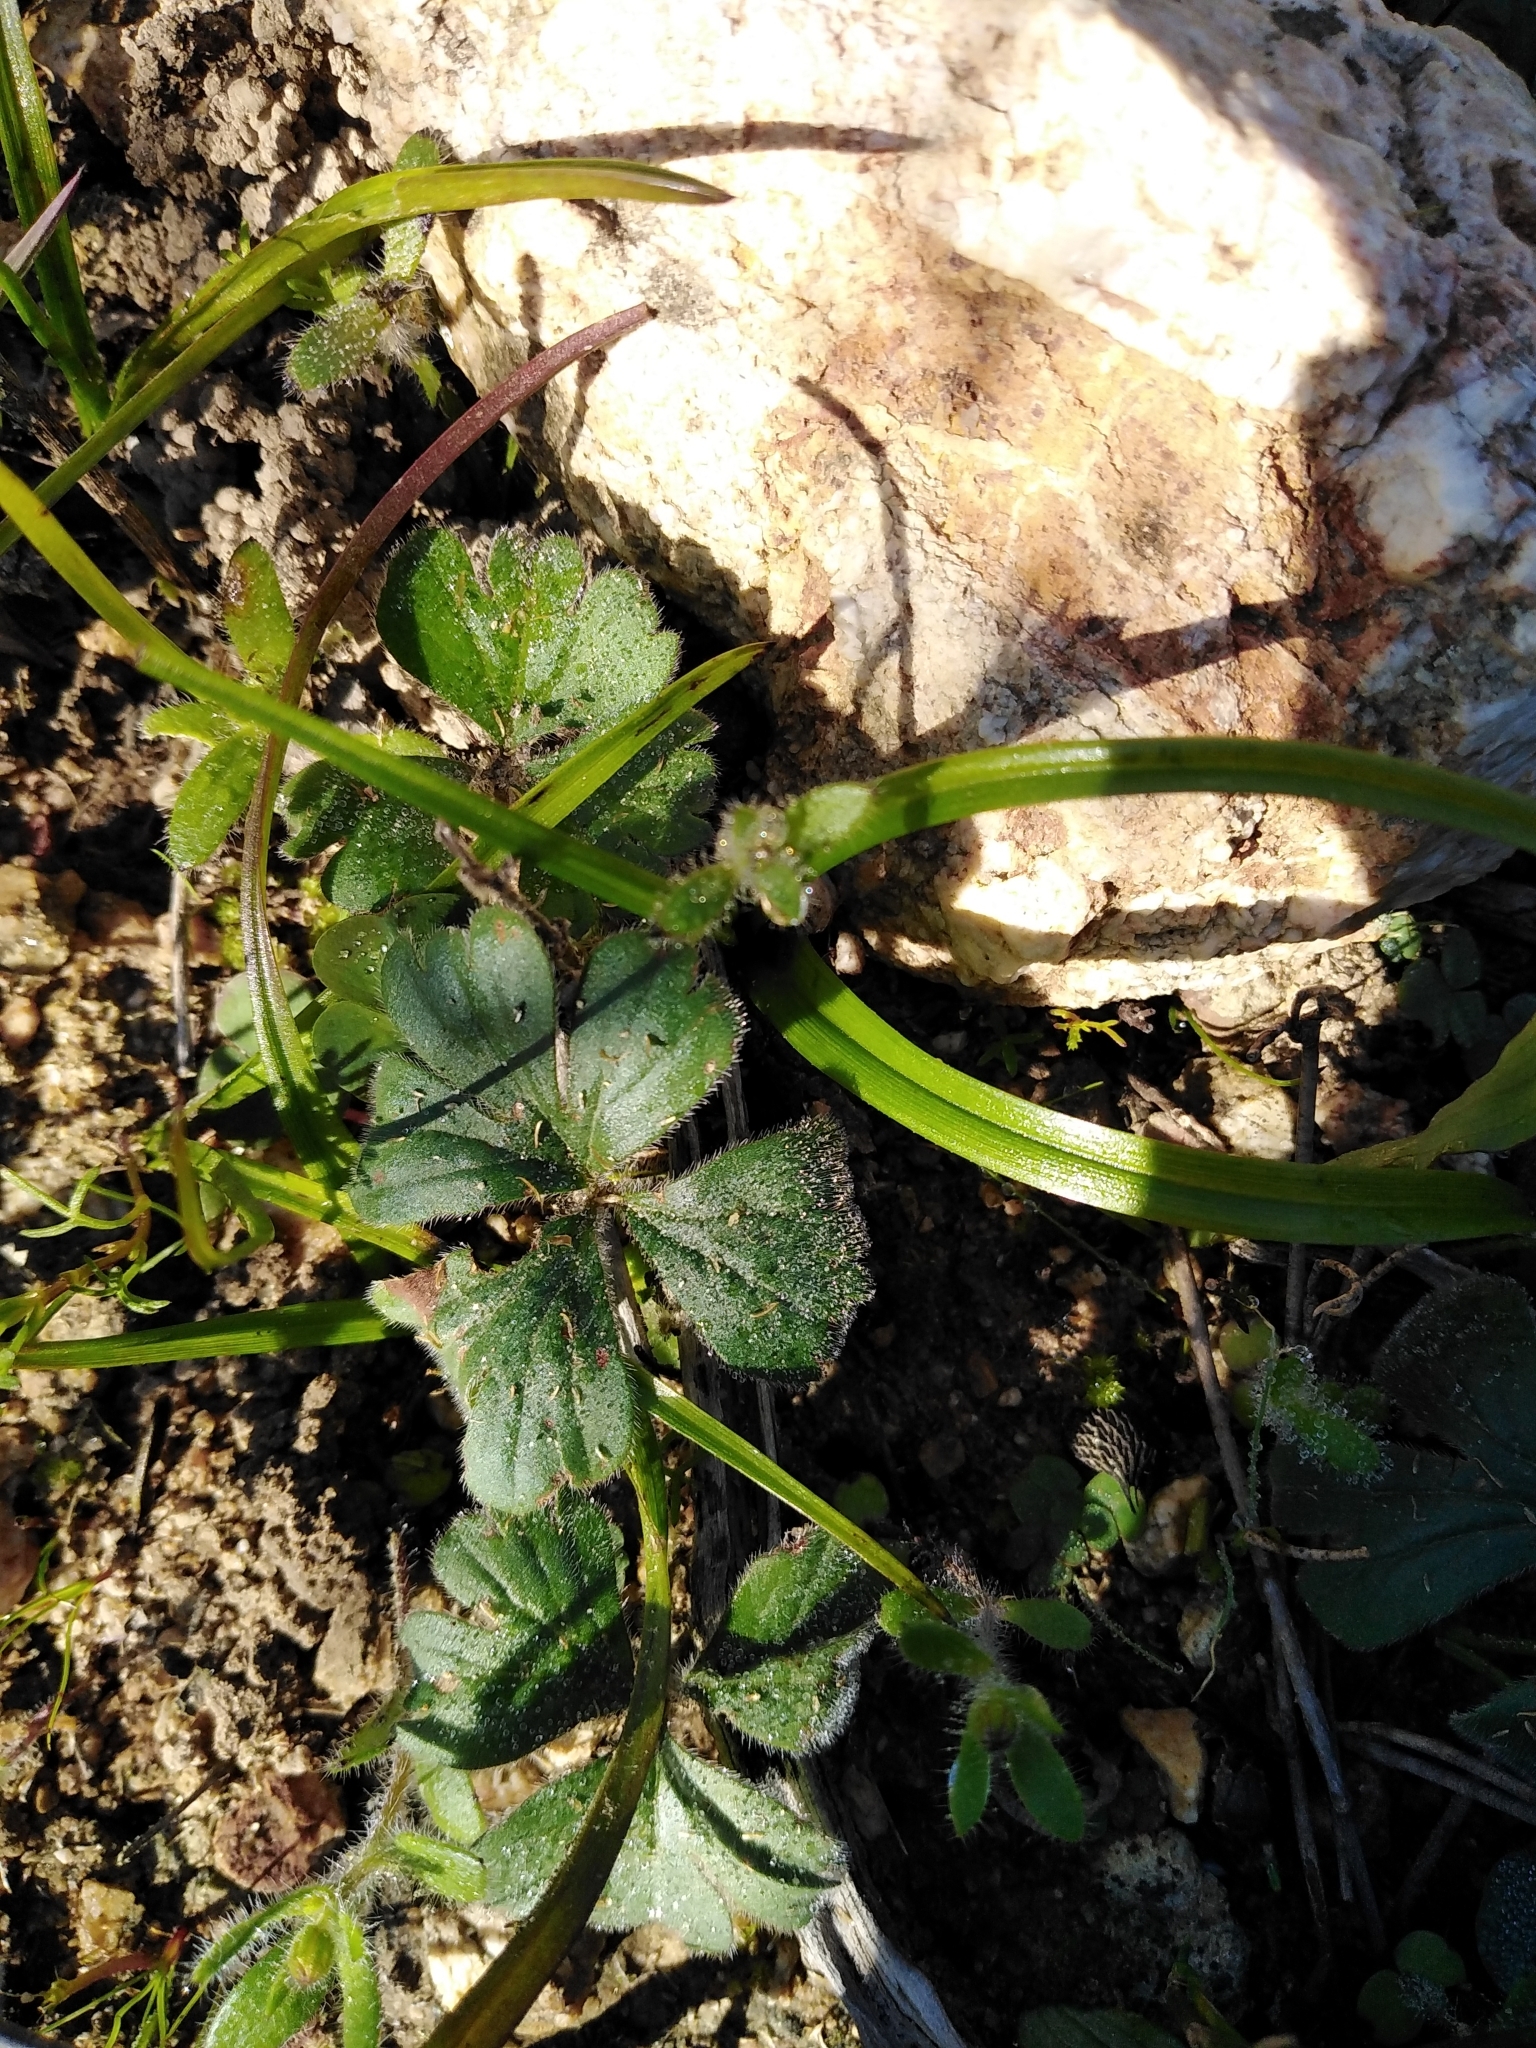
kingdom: Plantae
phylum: Tracheophyta
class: Magnoliopsida
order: Geraniales
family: Geraniaceae
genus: Pelargonium
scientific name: Pelargonium ternifolium
